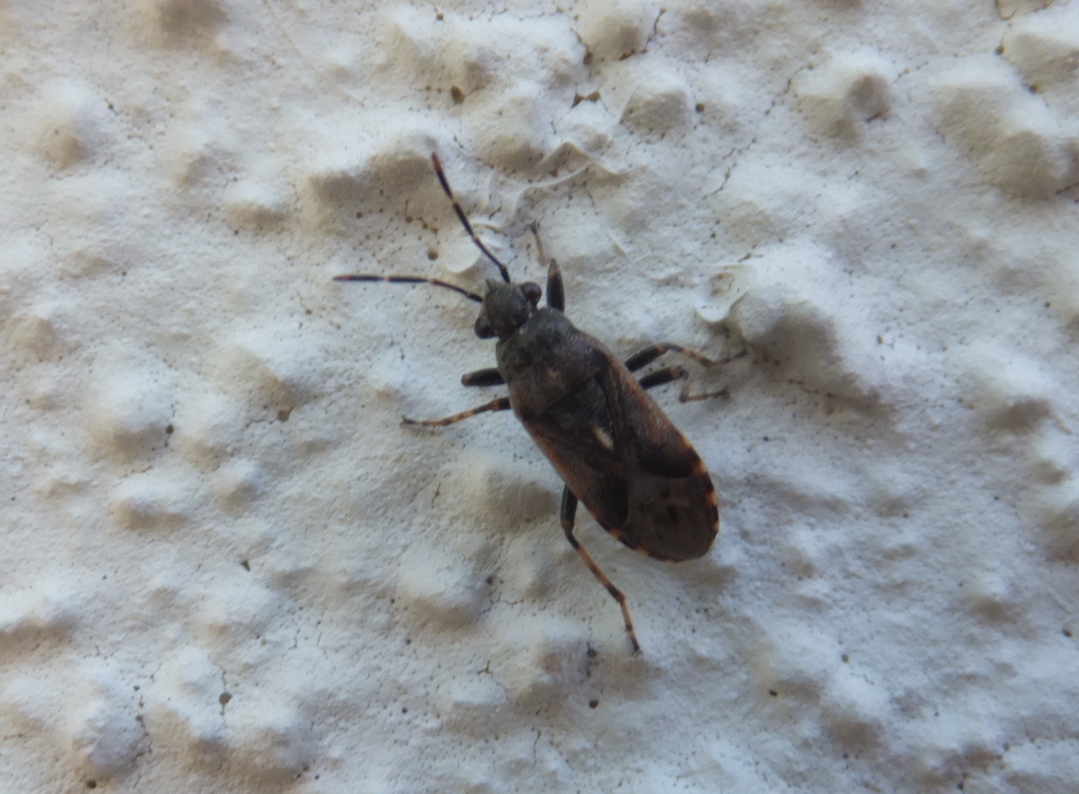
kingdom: Animalia
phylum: Arthropoda
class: Insecta
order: Hemiptera
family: Heterogastridae
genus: Heterogaster
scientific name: Heterogaster affinis
